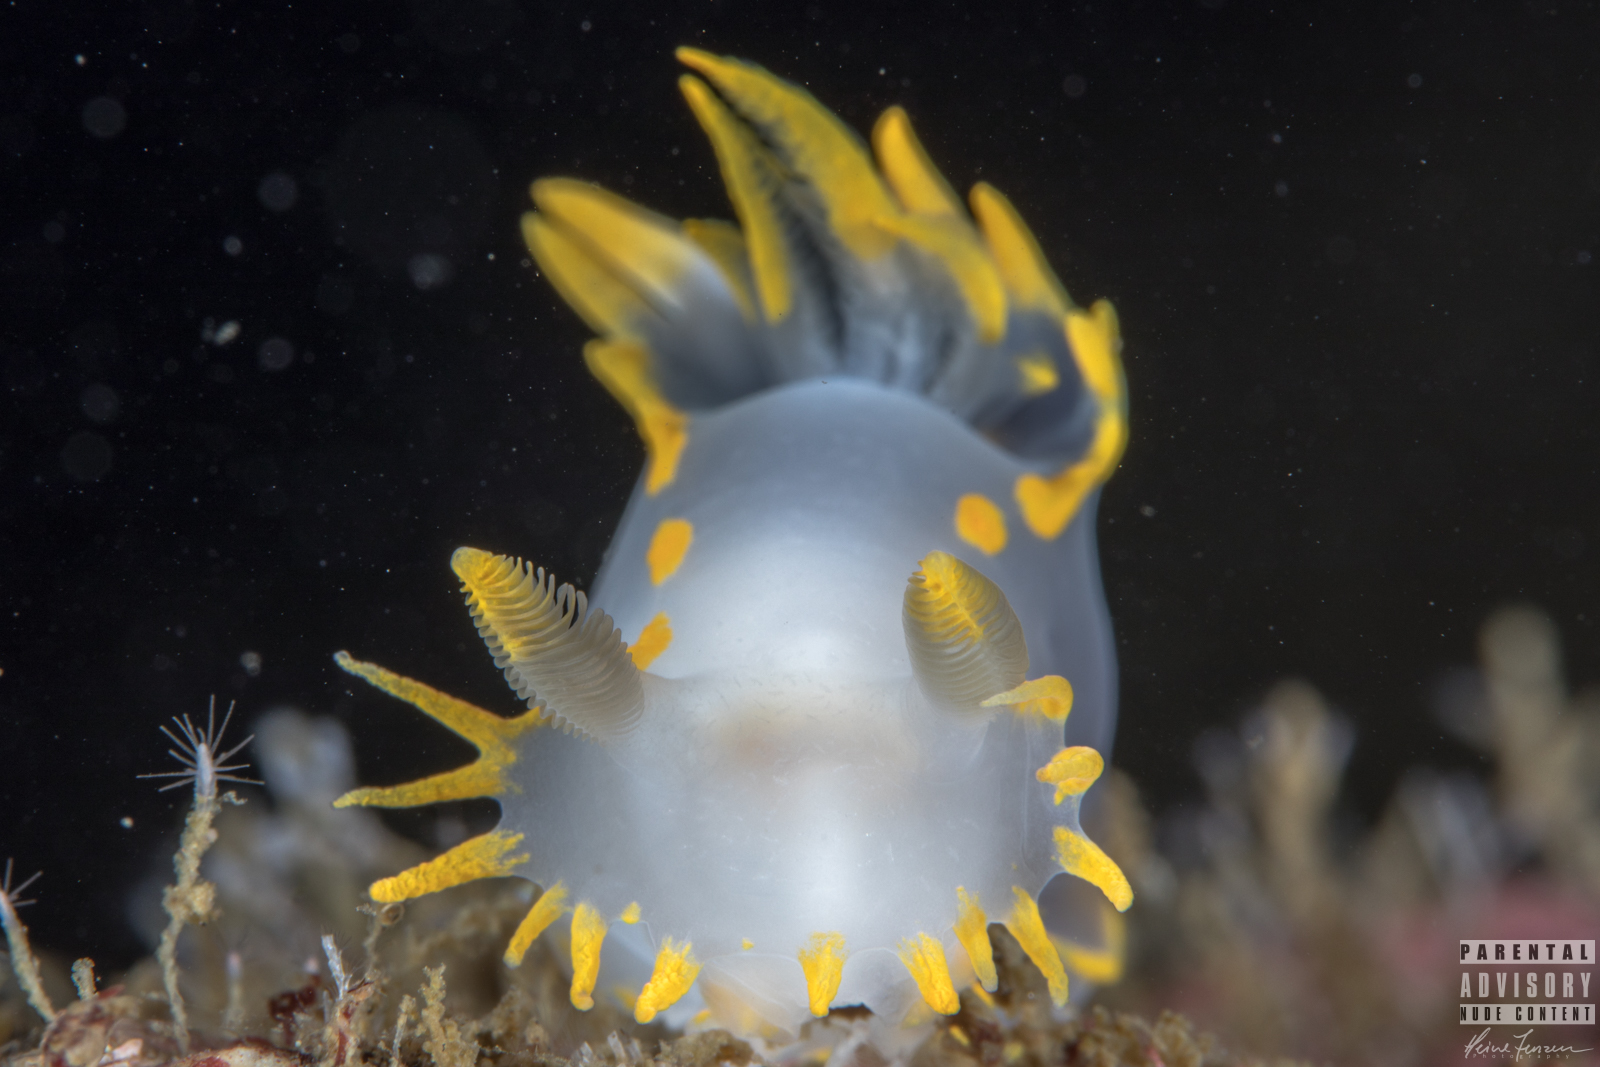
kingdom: Animalia
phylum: Mollusca
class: Gastropoda
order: Nudibranchia
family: Polyceridae
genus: Polycera
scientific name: Polycera faeroensis
